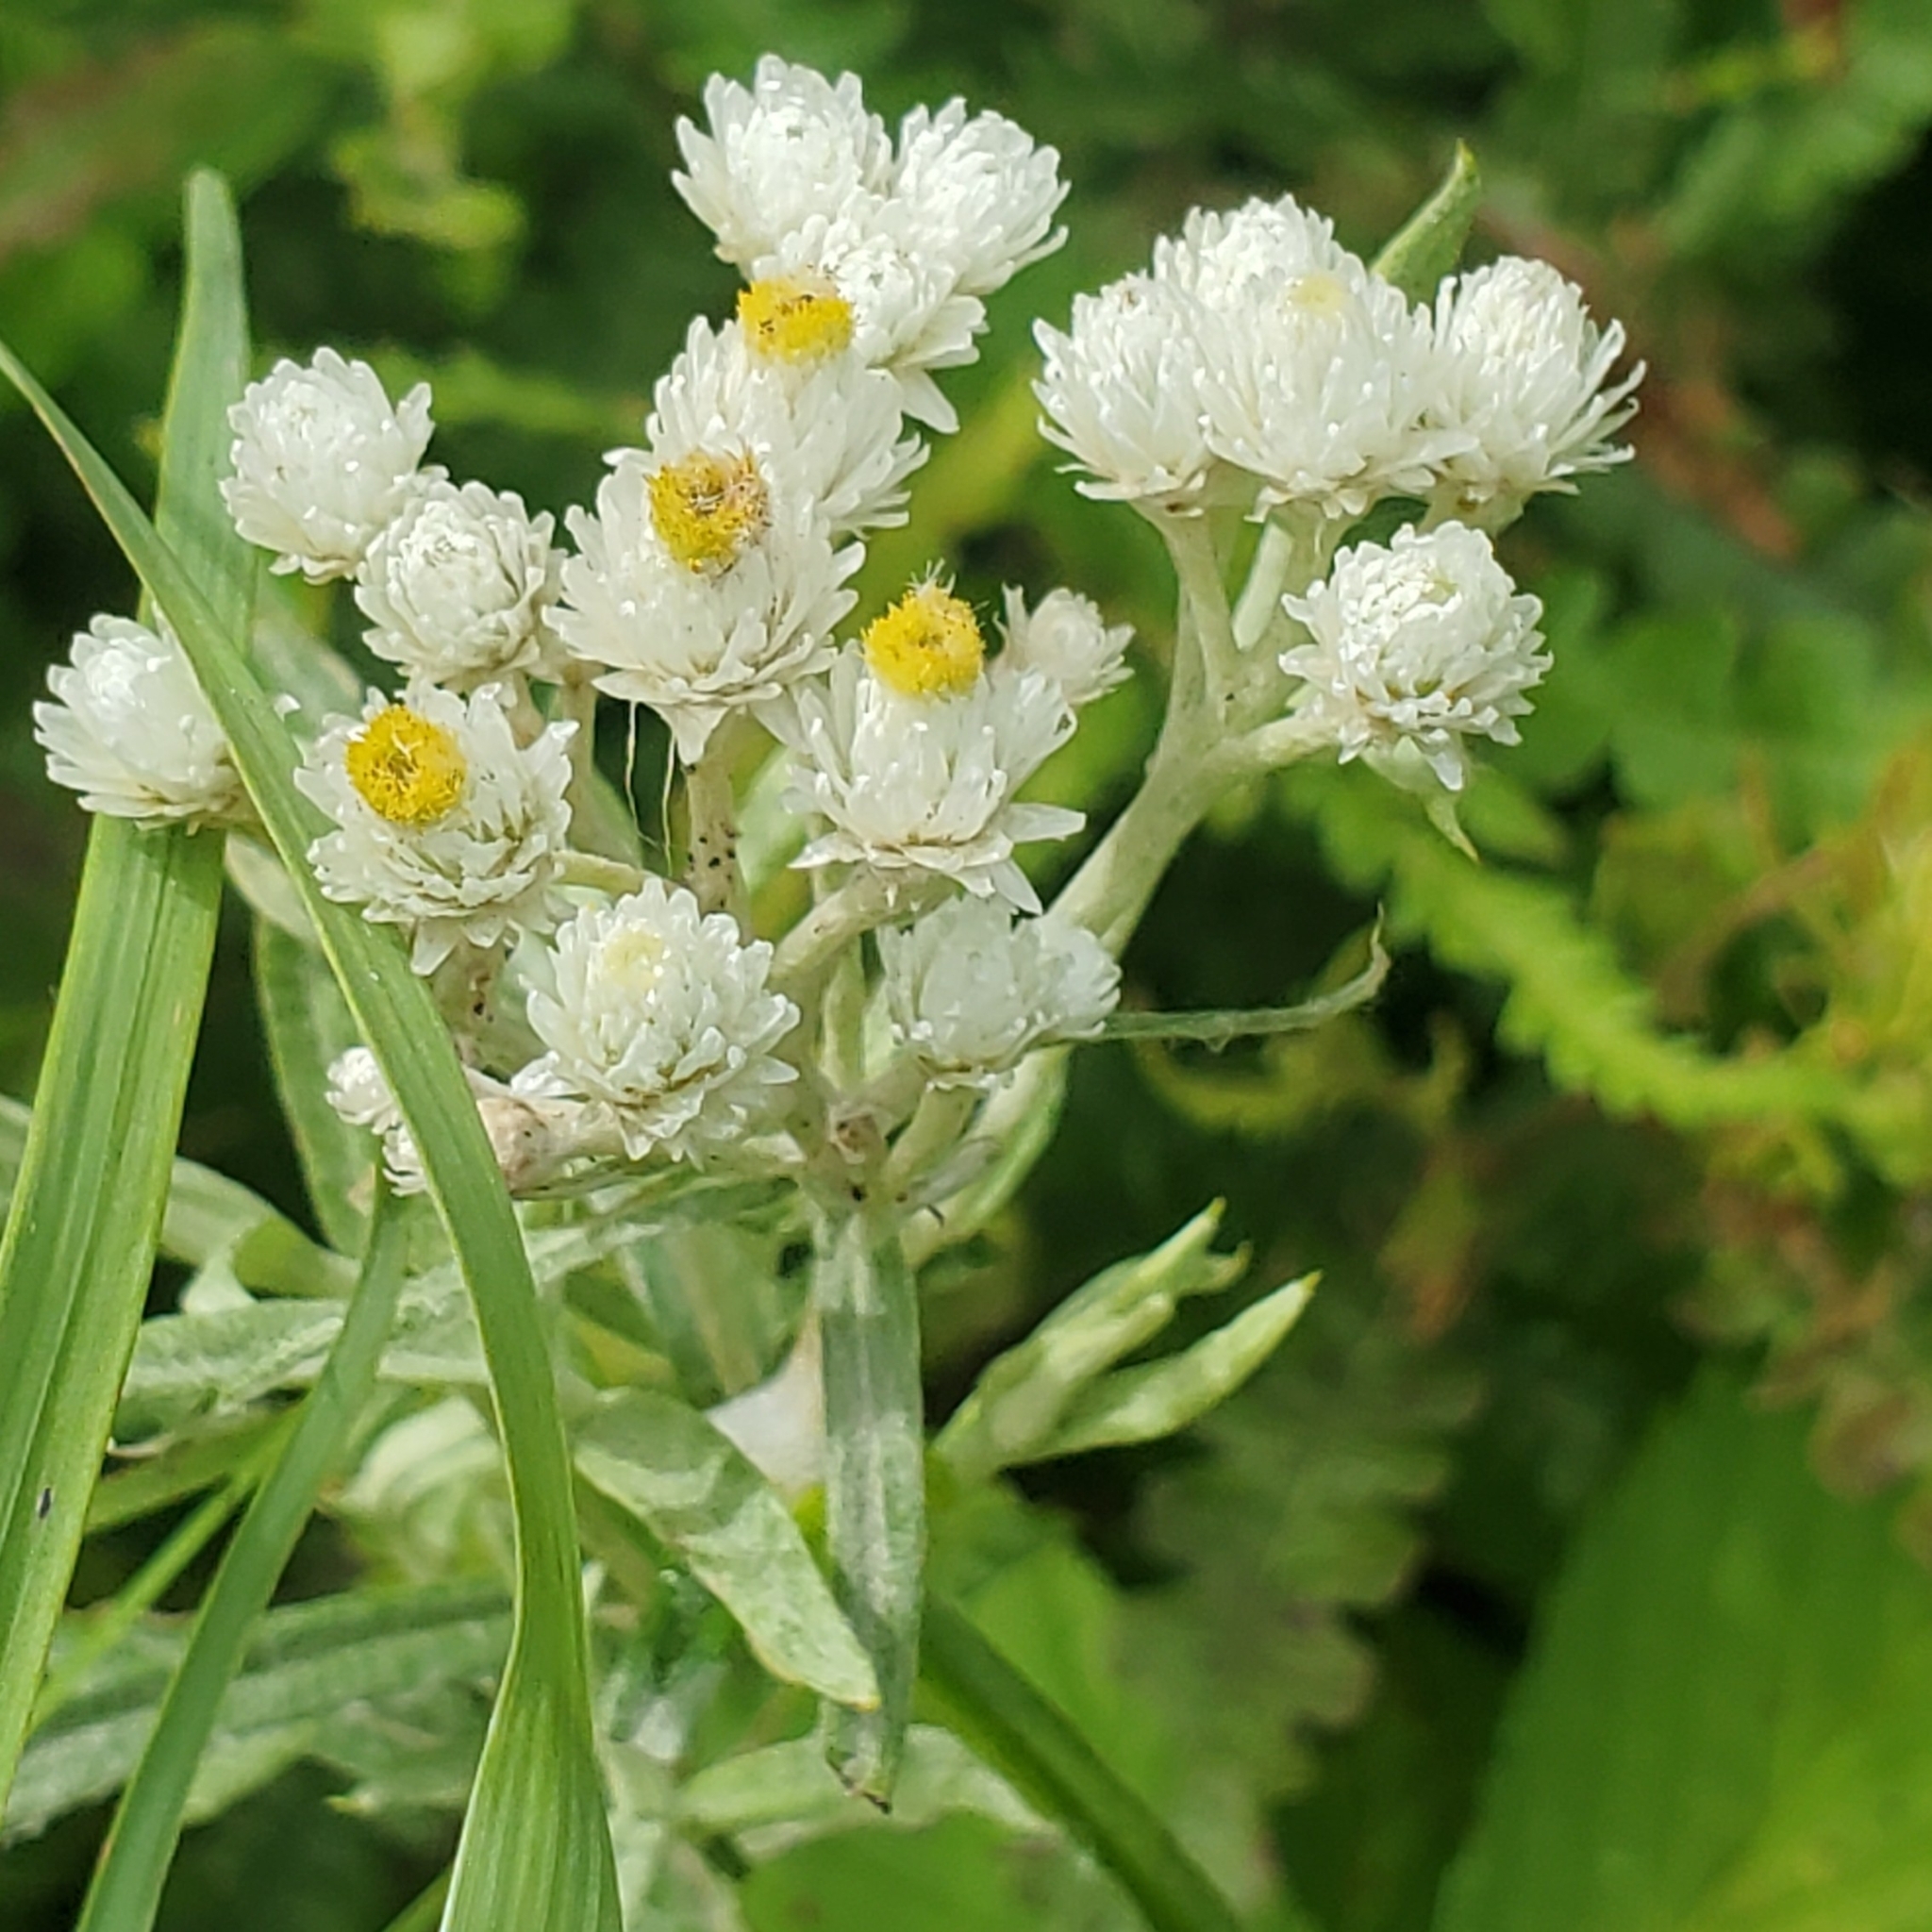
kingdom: Plantae
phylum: Tracheophyta
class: Magnoliopsida
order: Asterales
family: Asteraceae
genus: Anaphalis
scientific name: Anaphalis margaritacea
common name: Pearly everlasting
